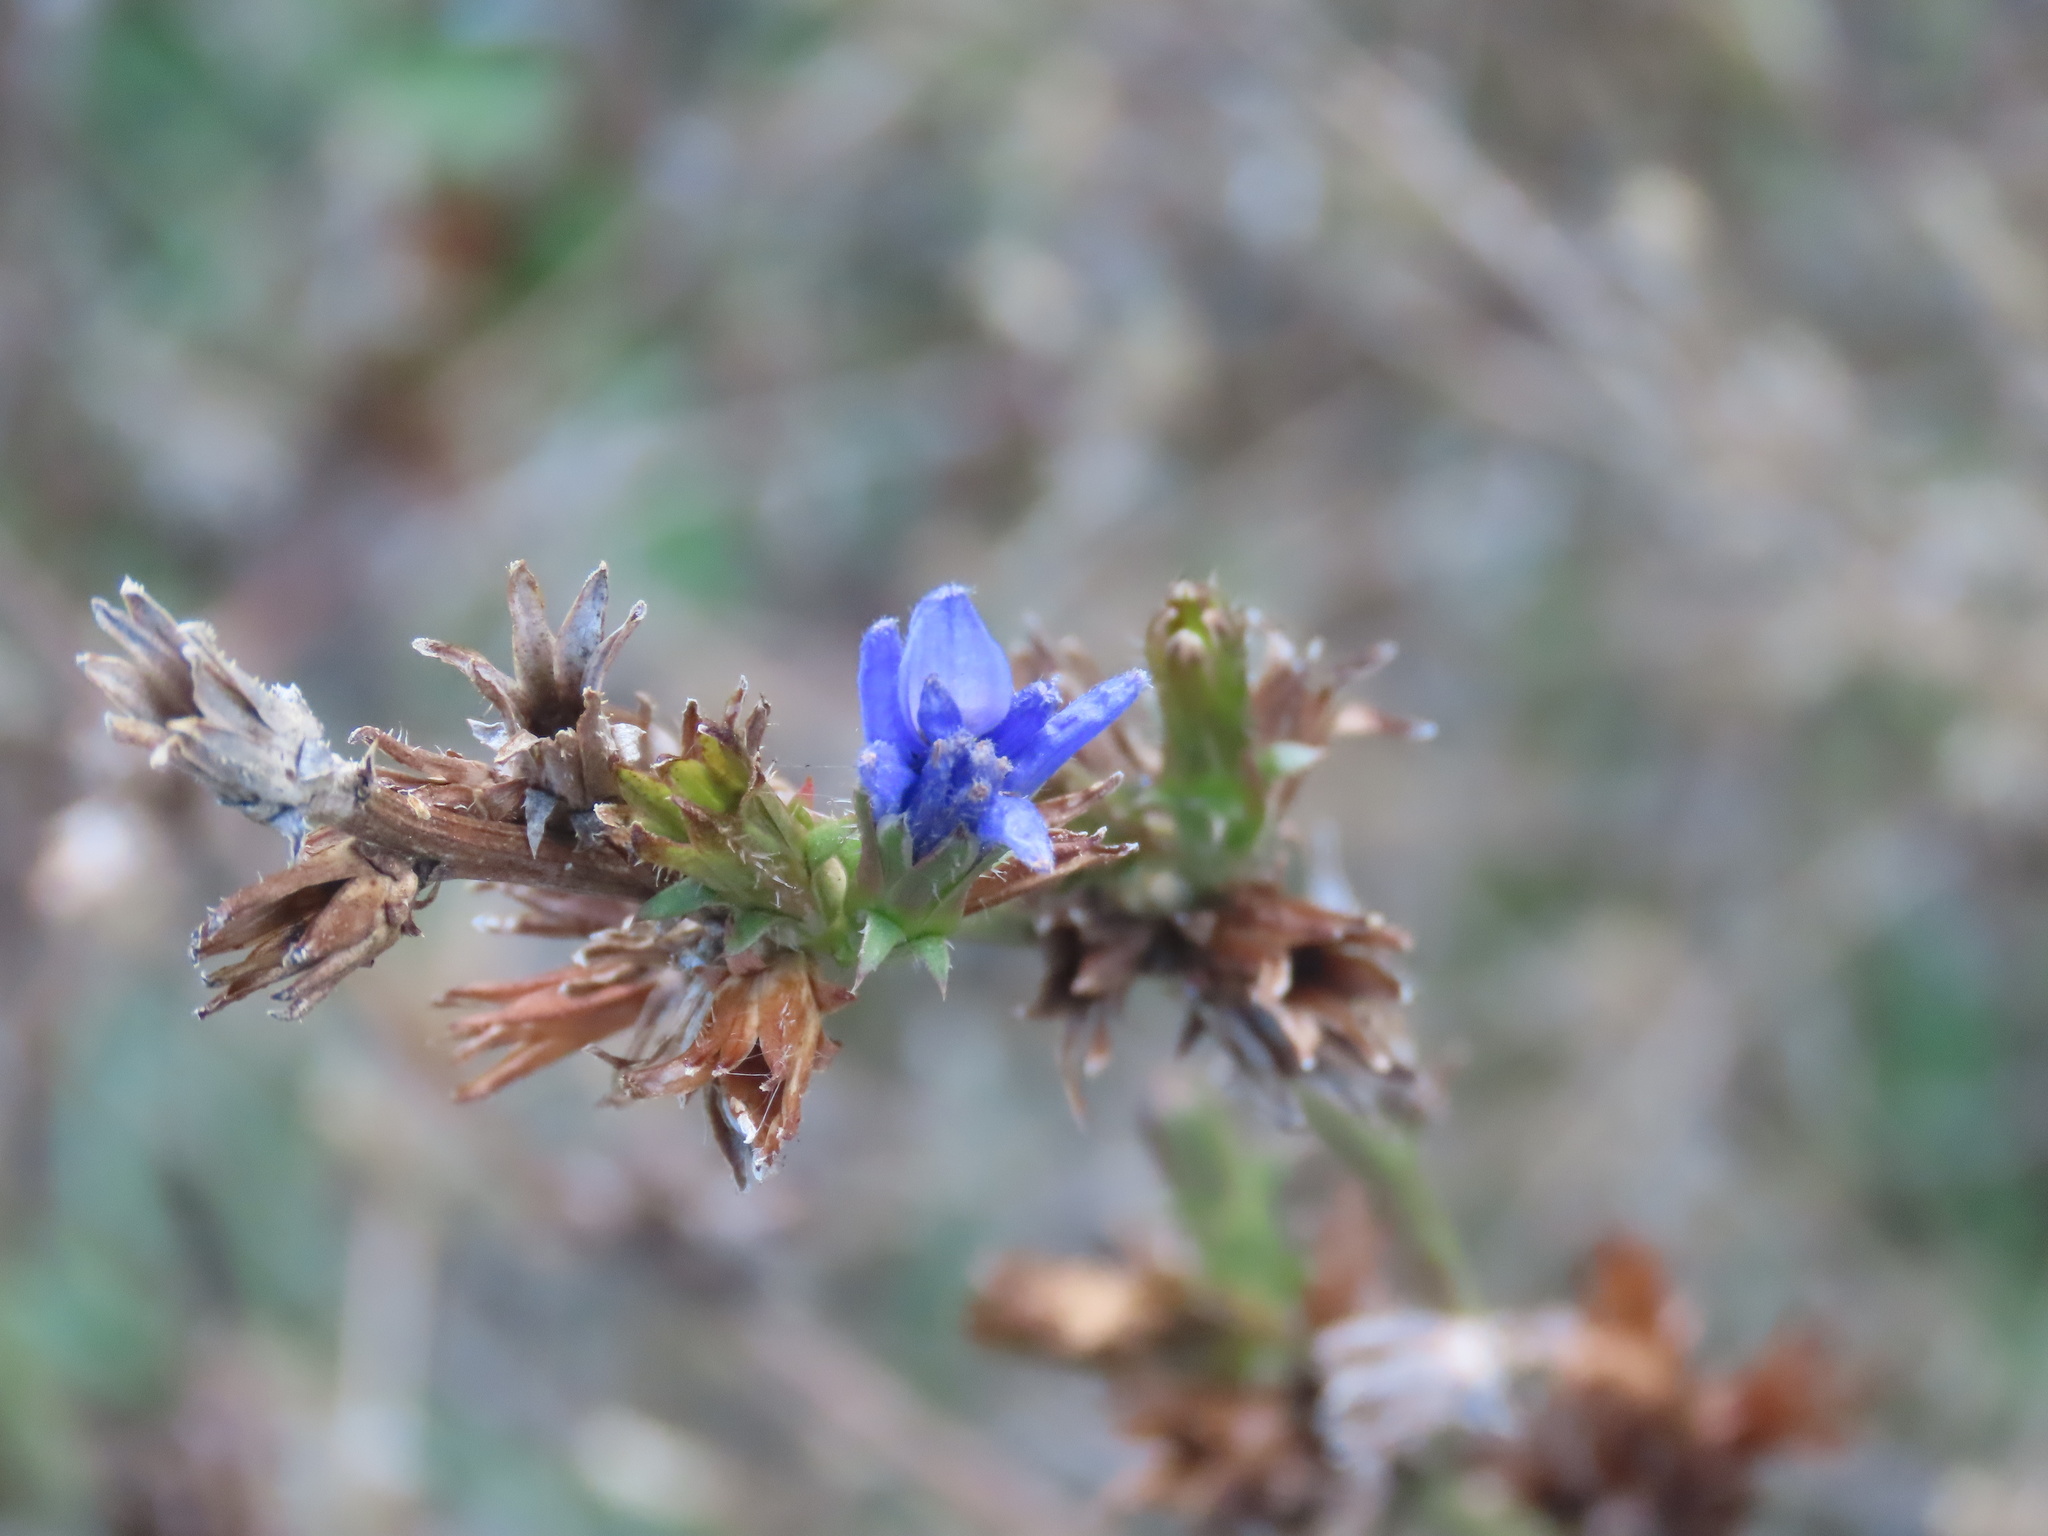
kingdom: Plantae
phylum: Tracheophyta
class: Magnoliopsida
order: Asterales
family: Asteraceae
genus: Cichorium
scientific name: Cichorium intybus
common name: Chicory
